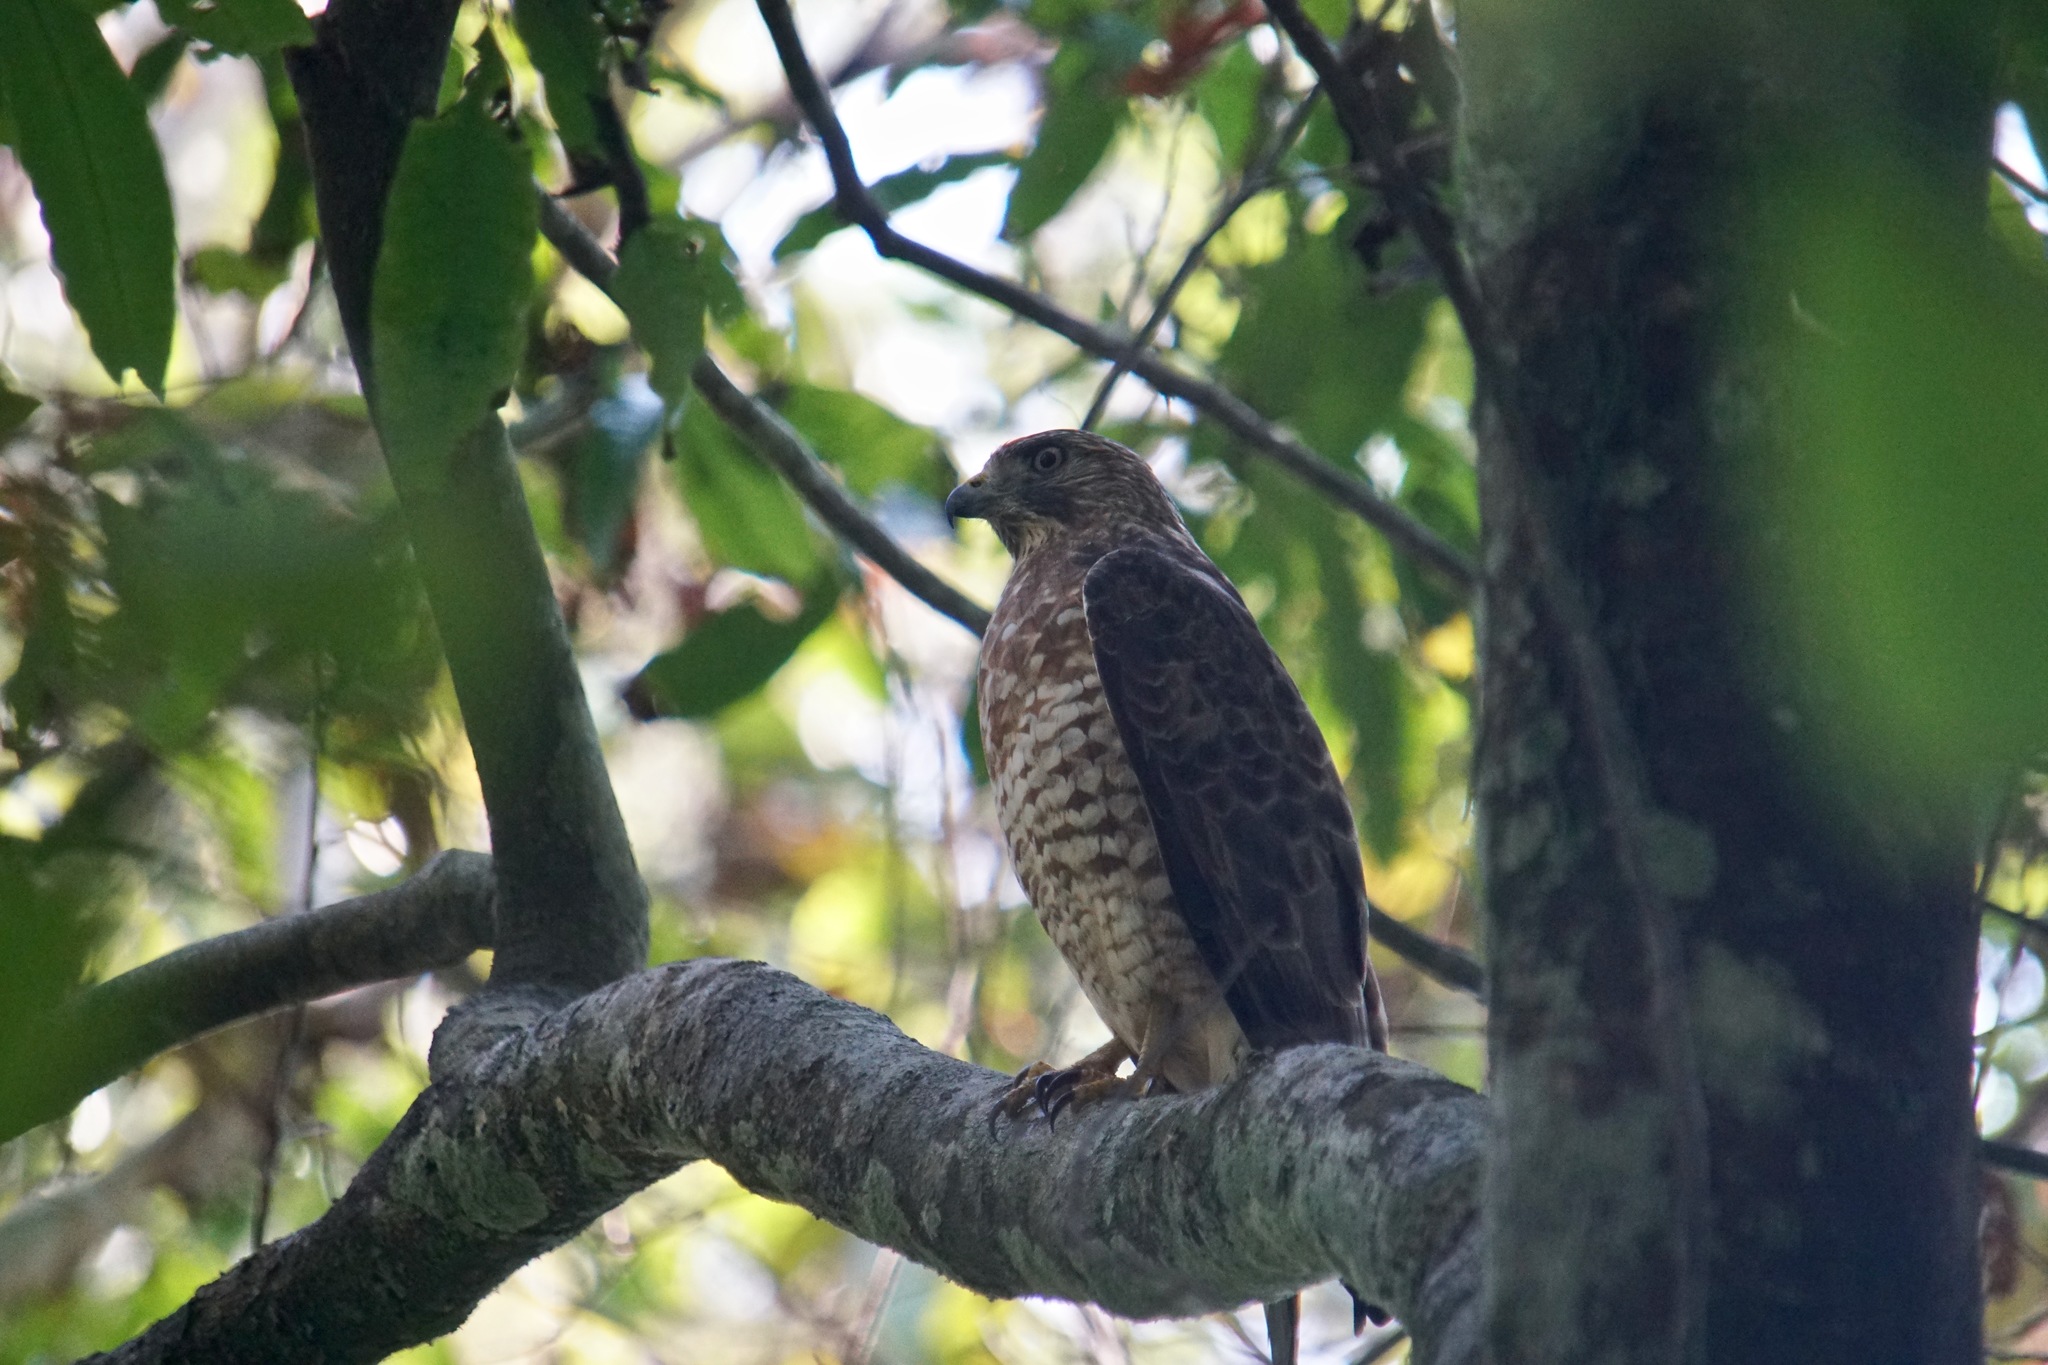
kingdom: Animalia
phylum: Chordata
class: Aves
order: Accipitriformes
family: Accipitridae
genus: Buteo
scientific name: Buteo platypterus
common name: Broad-winged hawk
